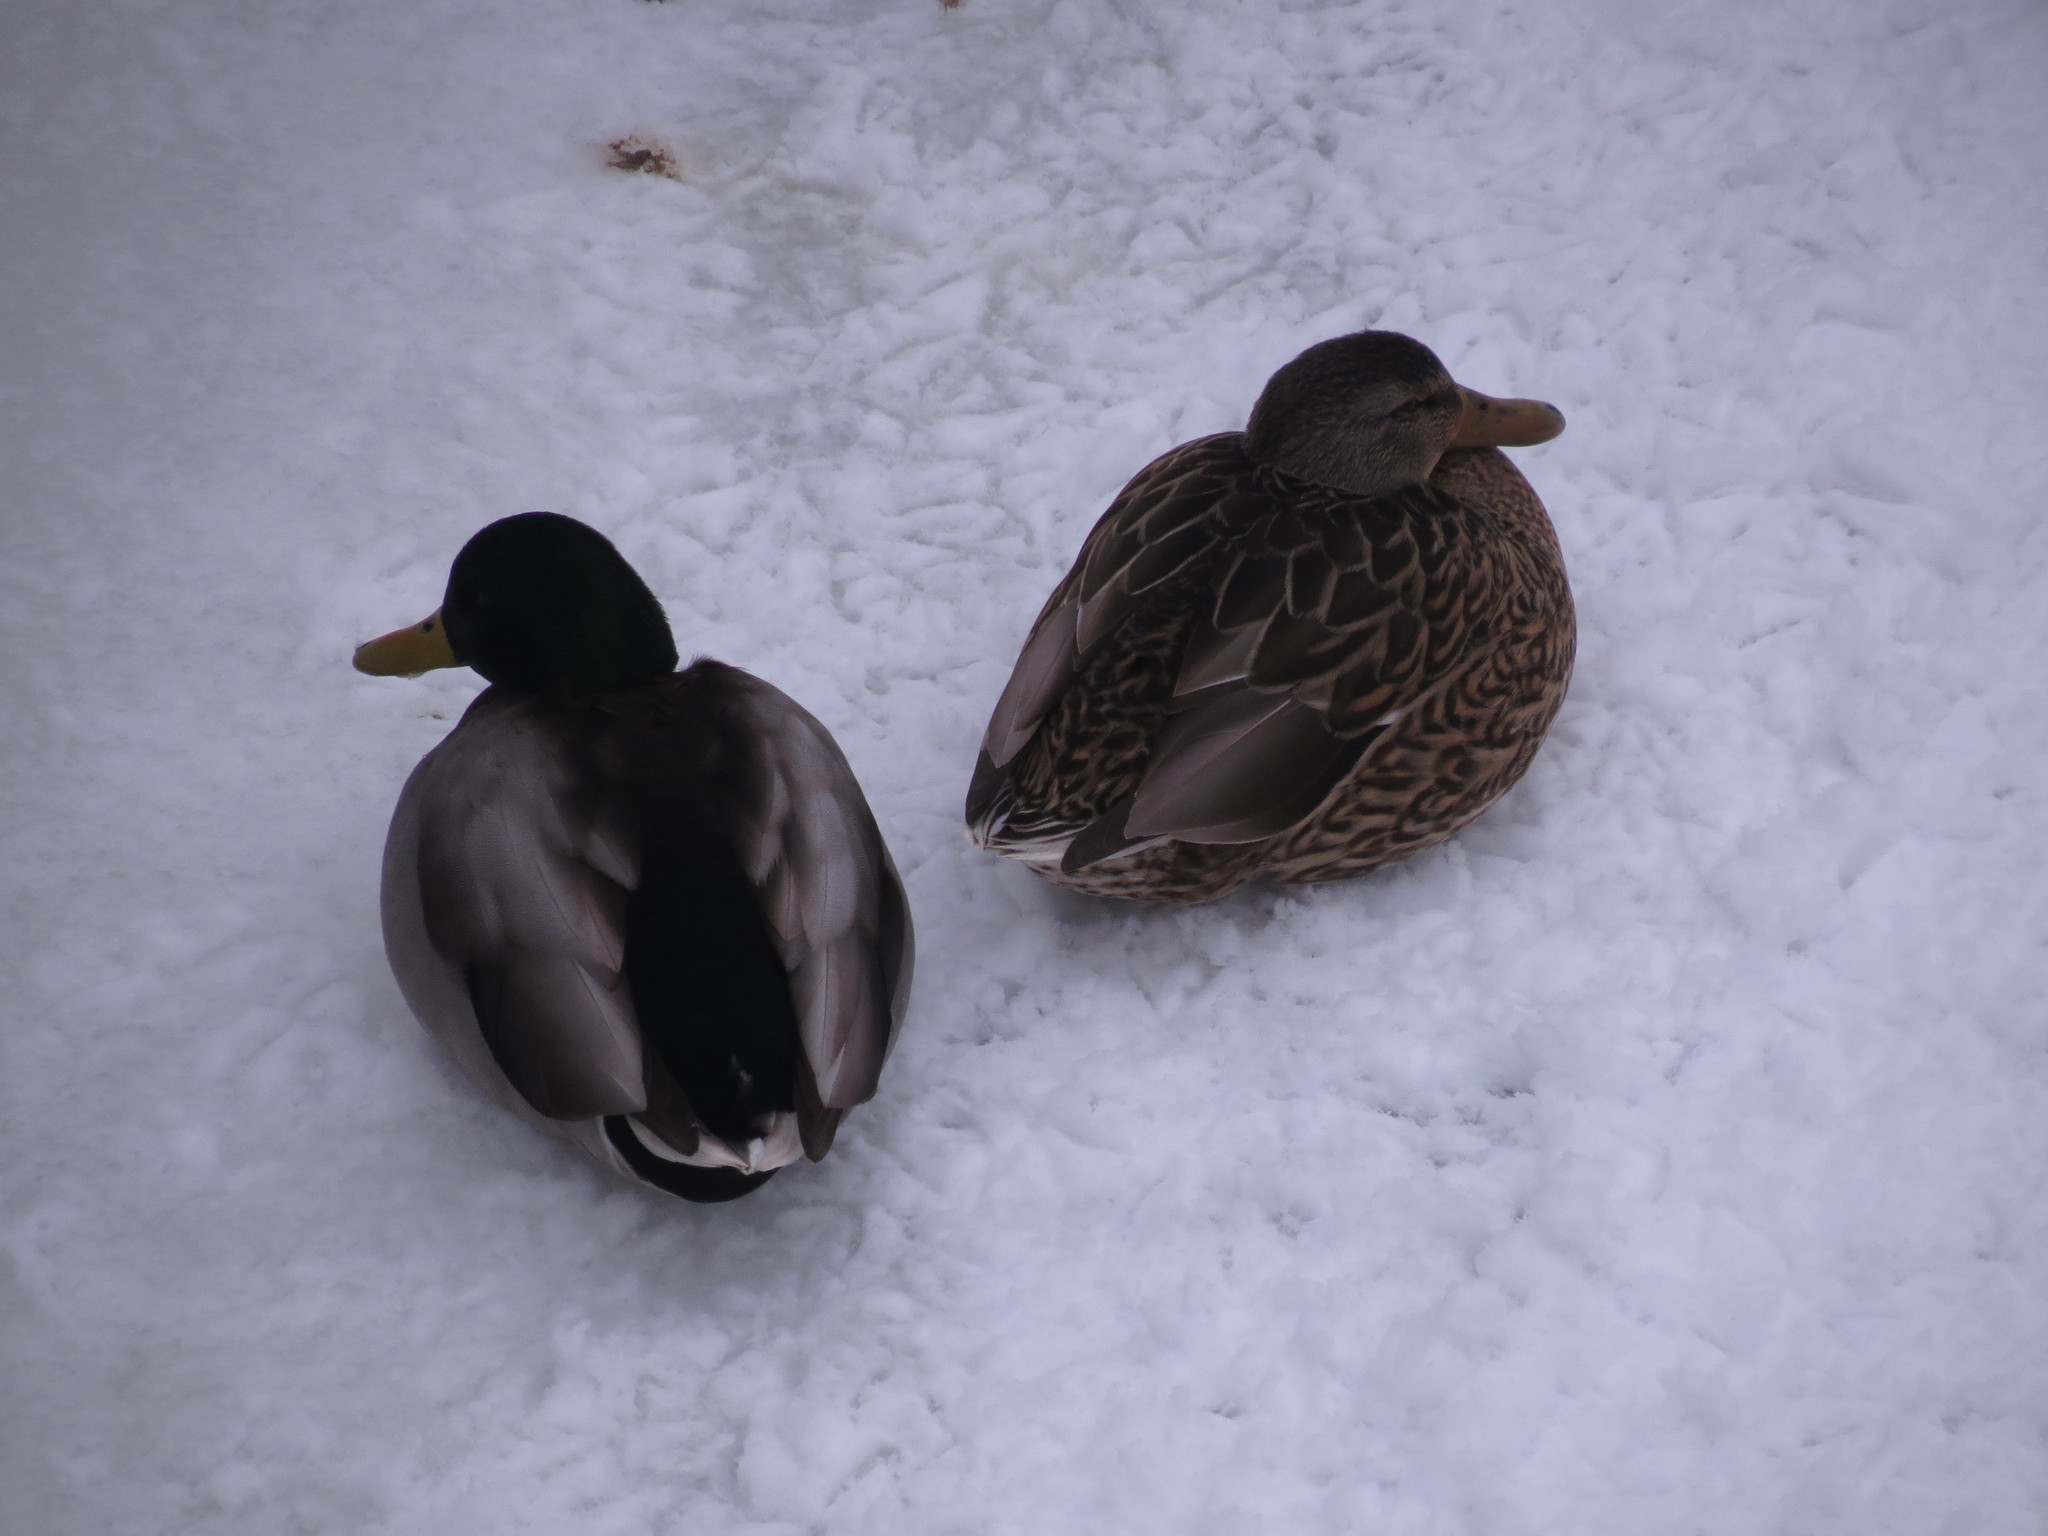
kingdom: Animalia
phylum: Chordata
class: Aves
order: Anseriformes
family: Anatidae
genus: Anas
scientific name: Anas platyrhynchos
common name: Mallard
